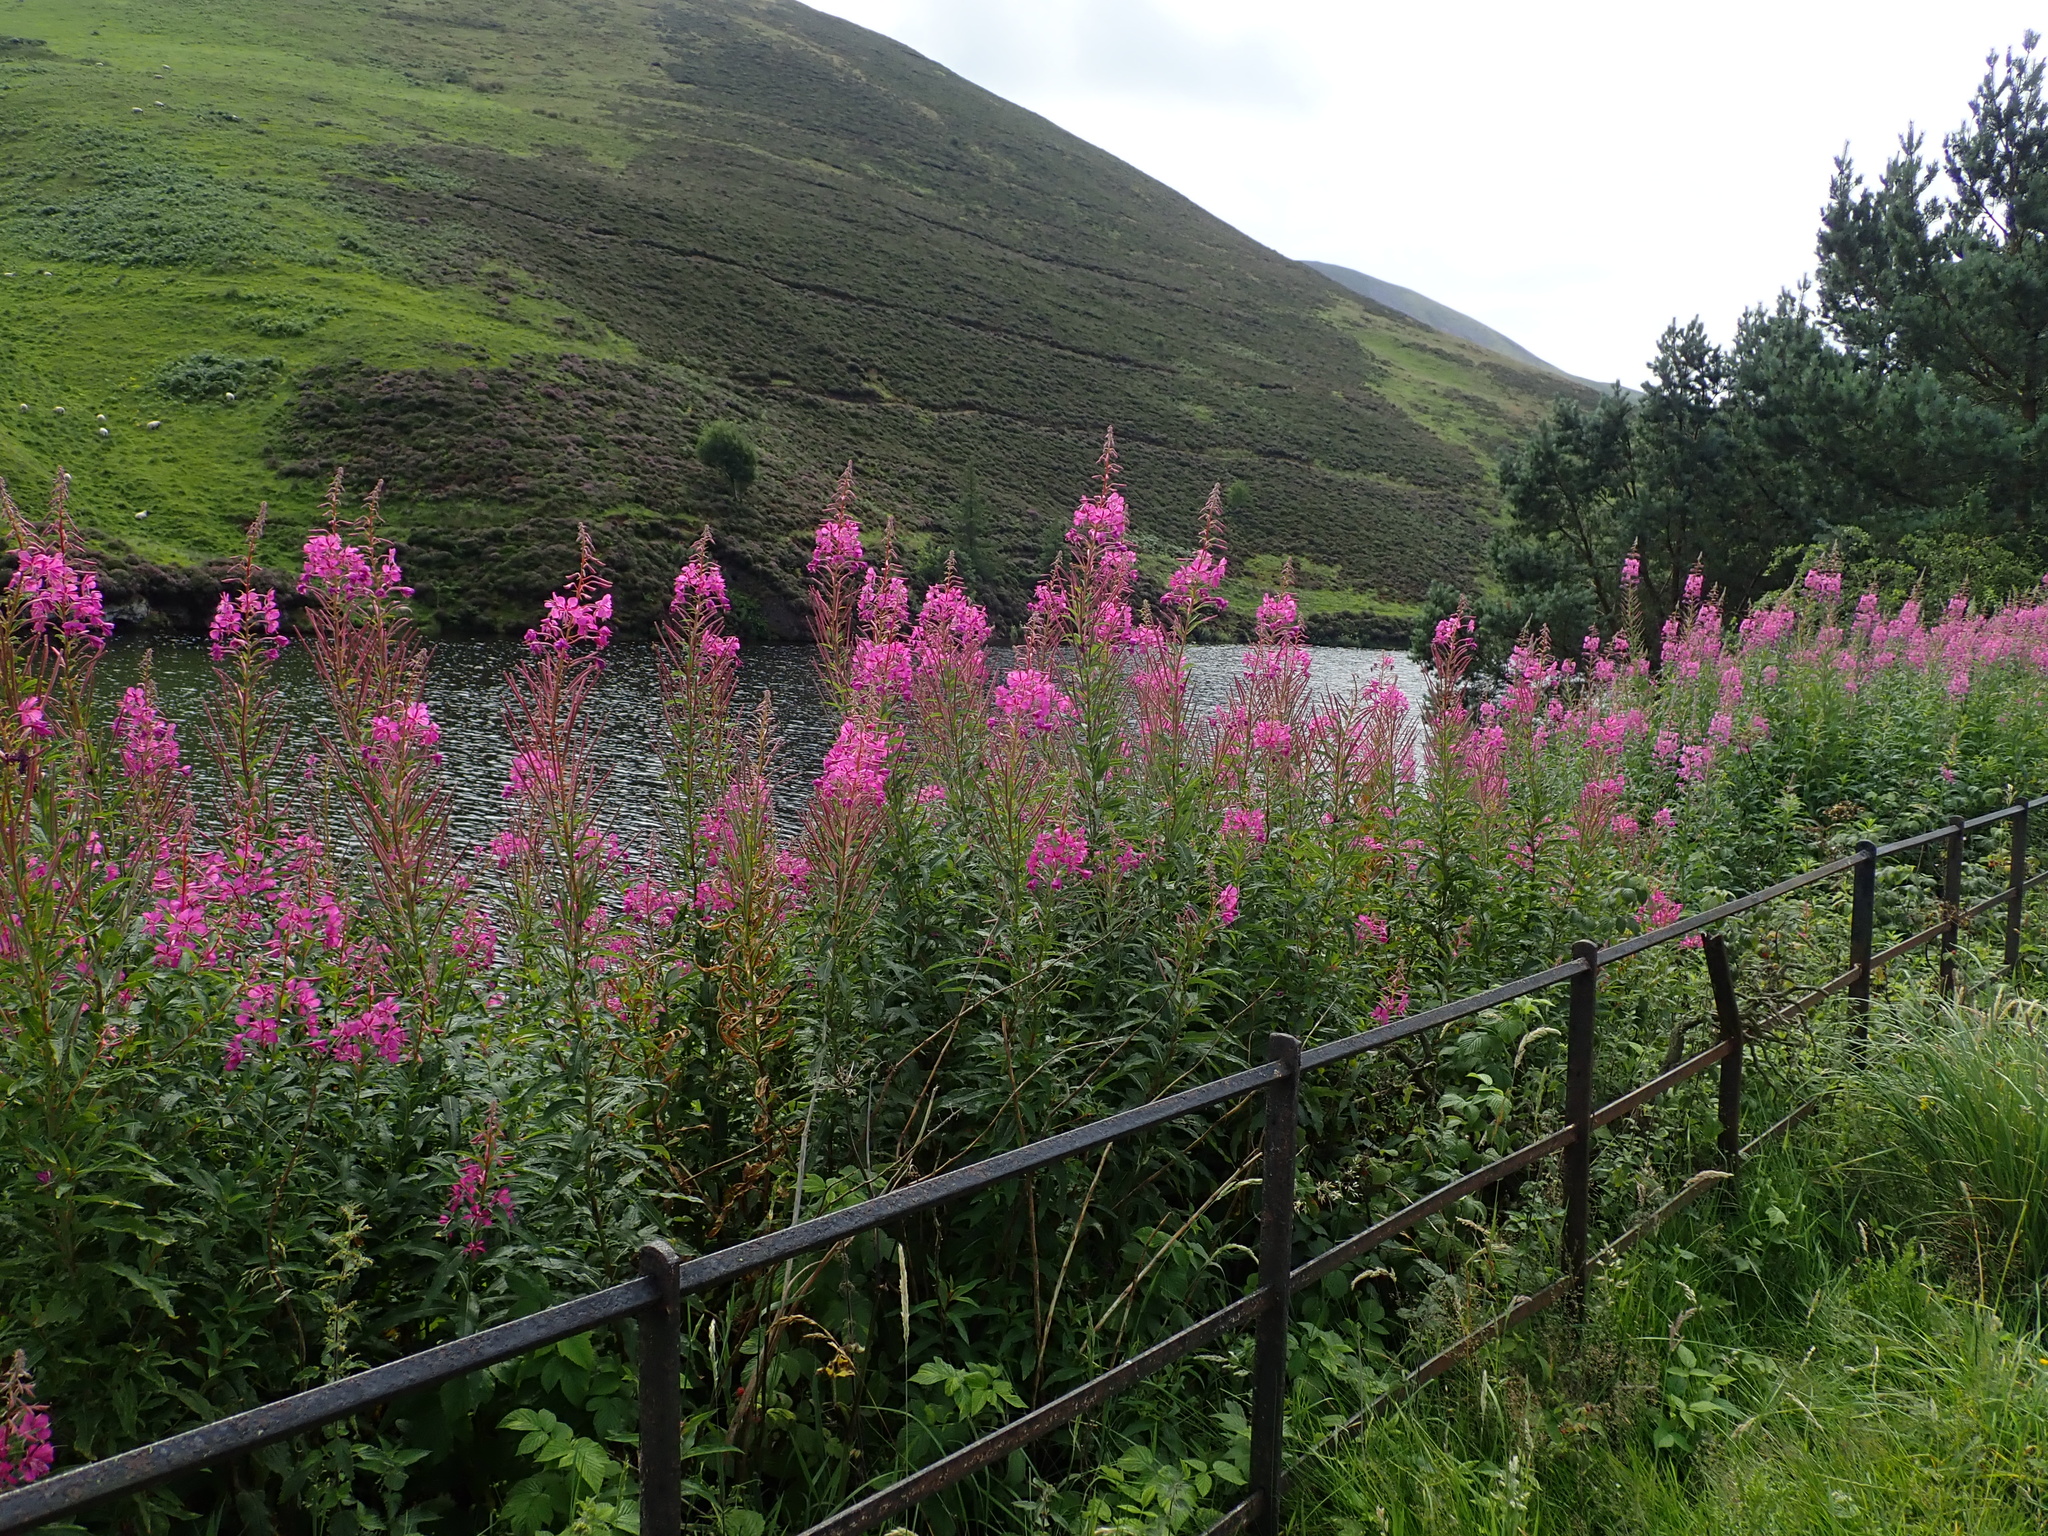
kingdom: Plantae
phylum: Tracheophyta
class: Magnoliopsida
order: Myrtales
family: Onagraceae
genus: Chamaenerion
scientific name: Chamaenerion angustifolium
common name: Fireweed
